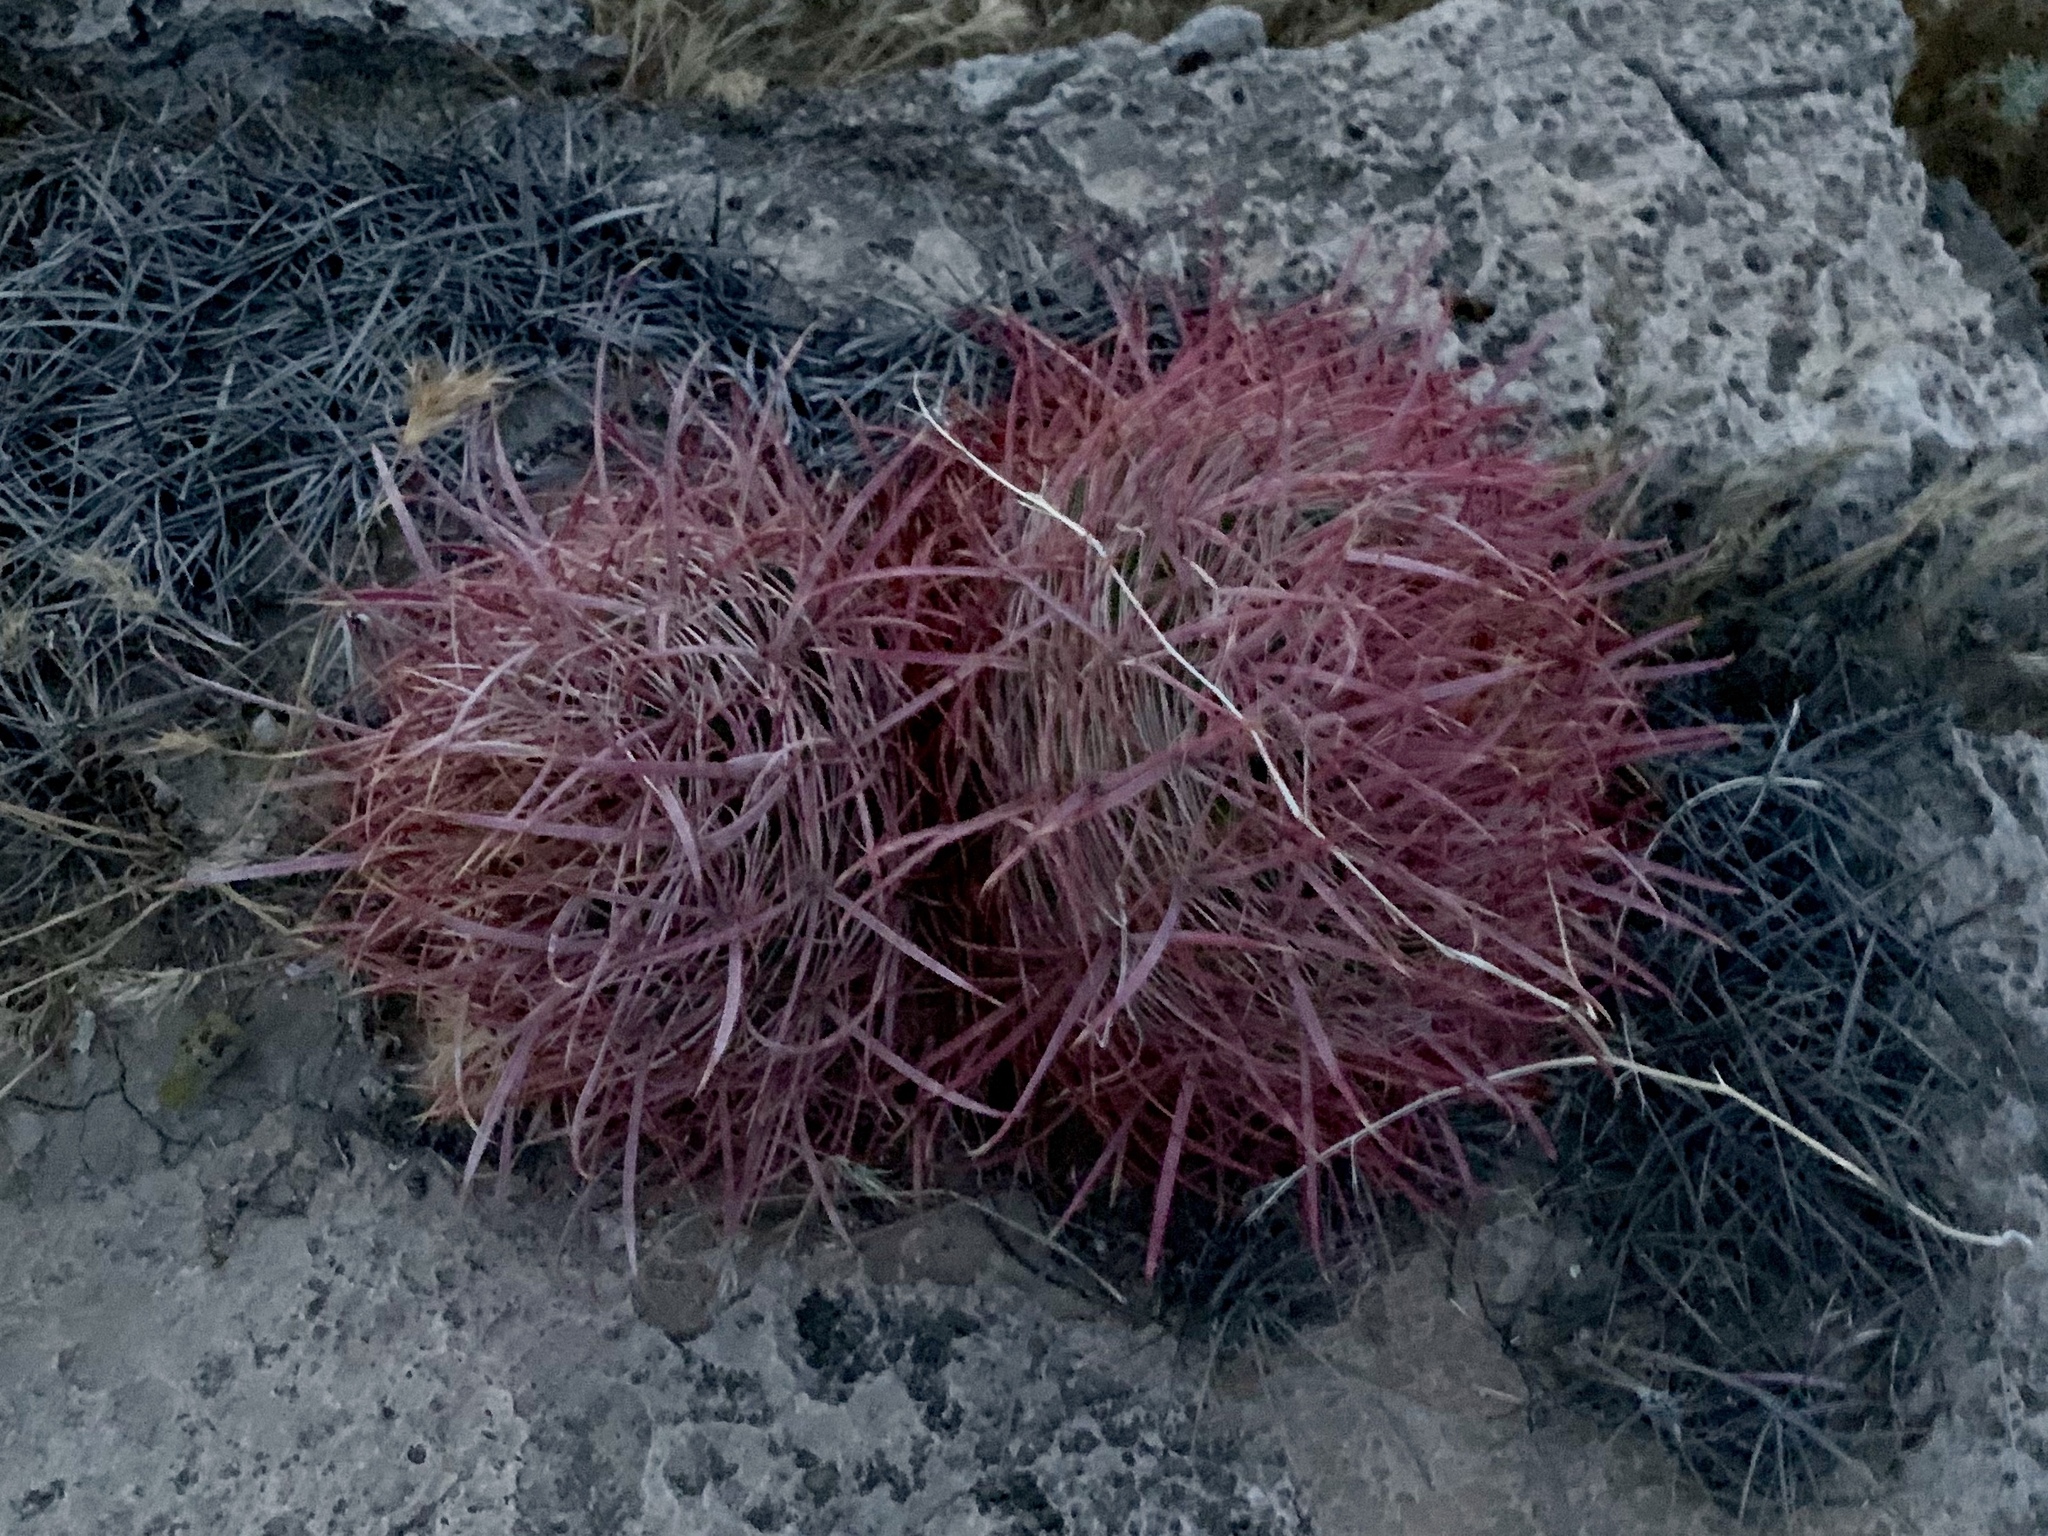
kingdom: Plantae
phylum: Tracheophyta
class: Magnoliopsida
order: Caryophyllales
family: Cactaceae
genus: Ferocactus
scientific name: Ferocactus cylindraceus
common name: California barrel cactus
